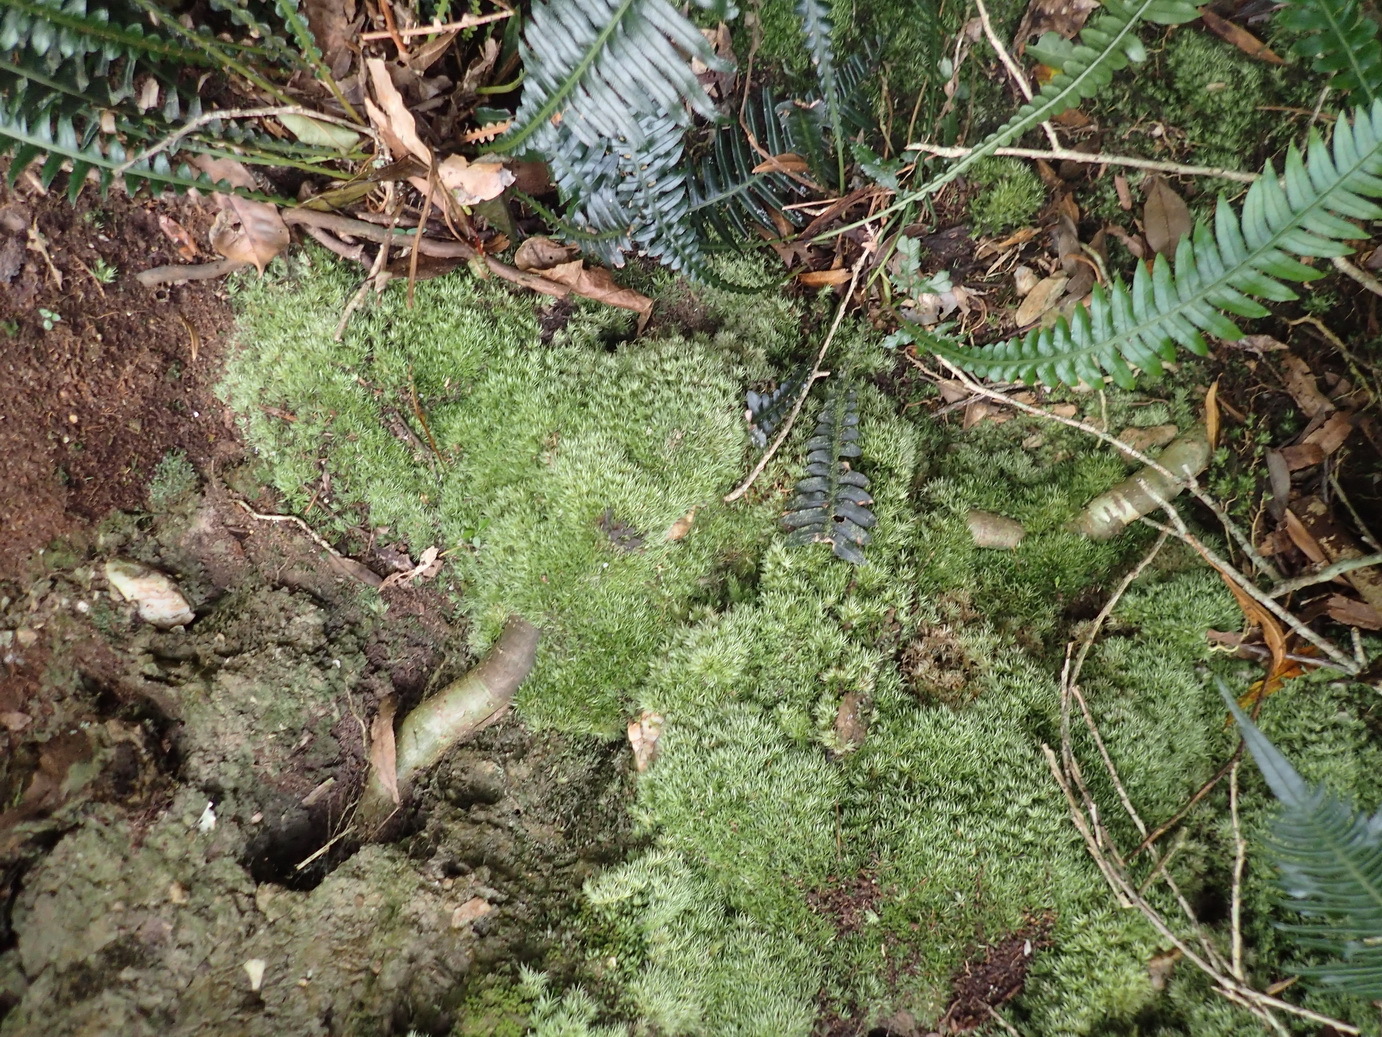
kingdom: Plantae
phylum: Bryophyta
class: Bryopsida
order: Dicranales
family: Leucobryaceae
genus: Leucobryum
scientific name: Leucobryum rehmannii
